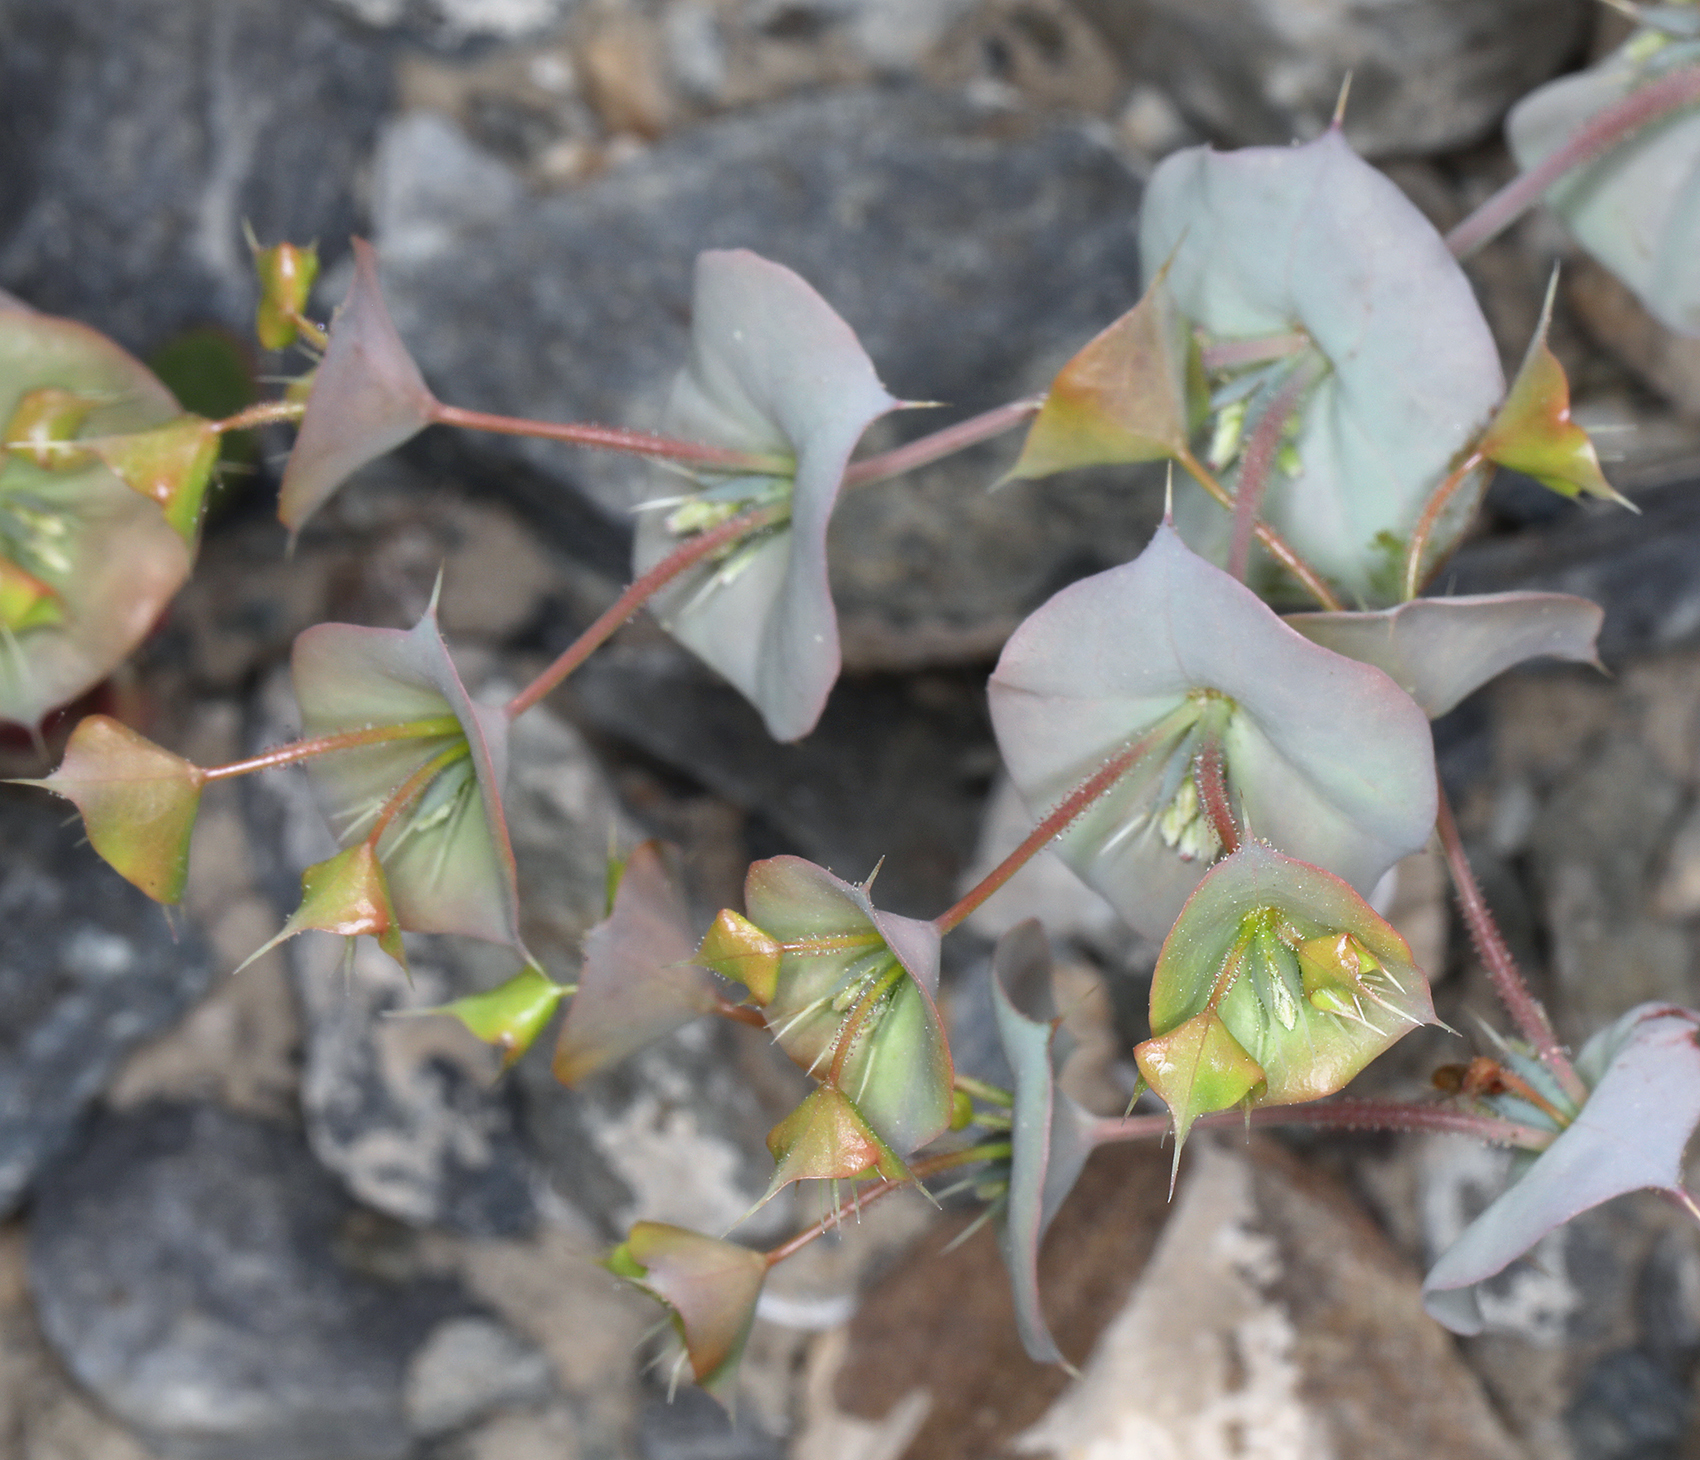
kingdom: Plantae
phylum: Tracheophyta
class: Magnoliopsida
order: Caryophyllales
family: Polygonaceae
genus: Oxytheca
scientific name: Oxytheca perfoliata
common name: Round-leaf puncturebract
